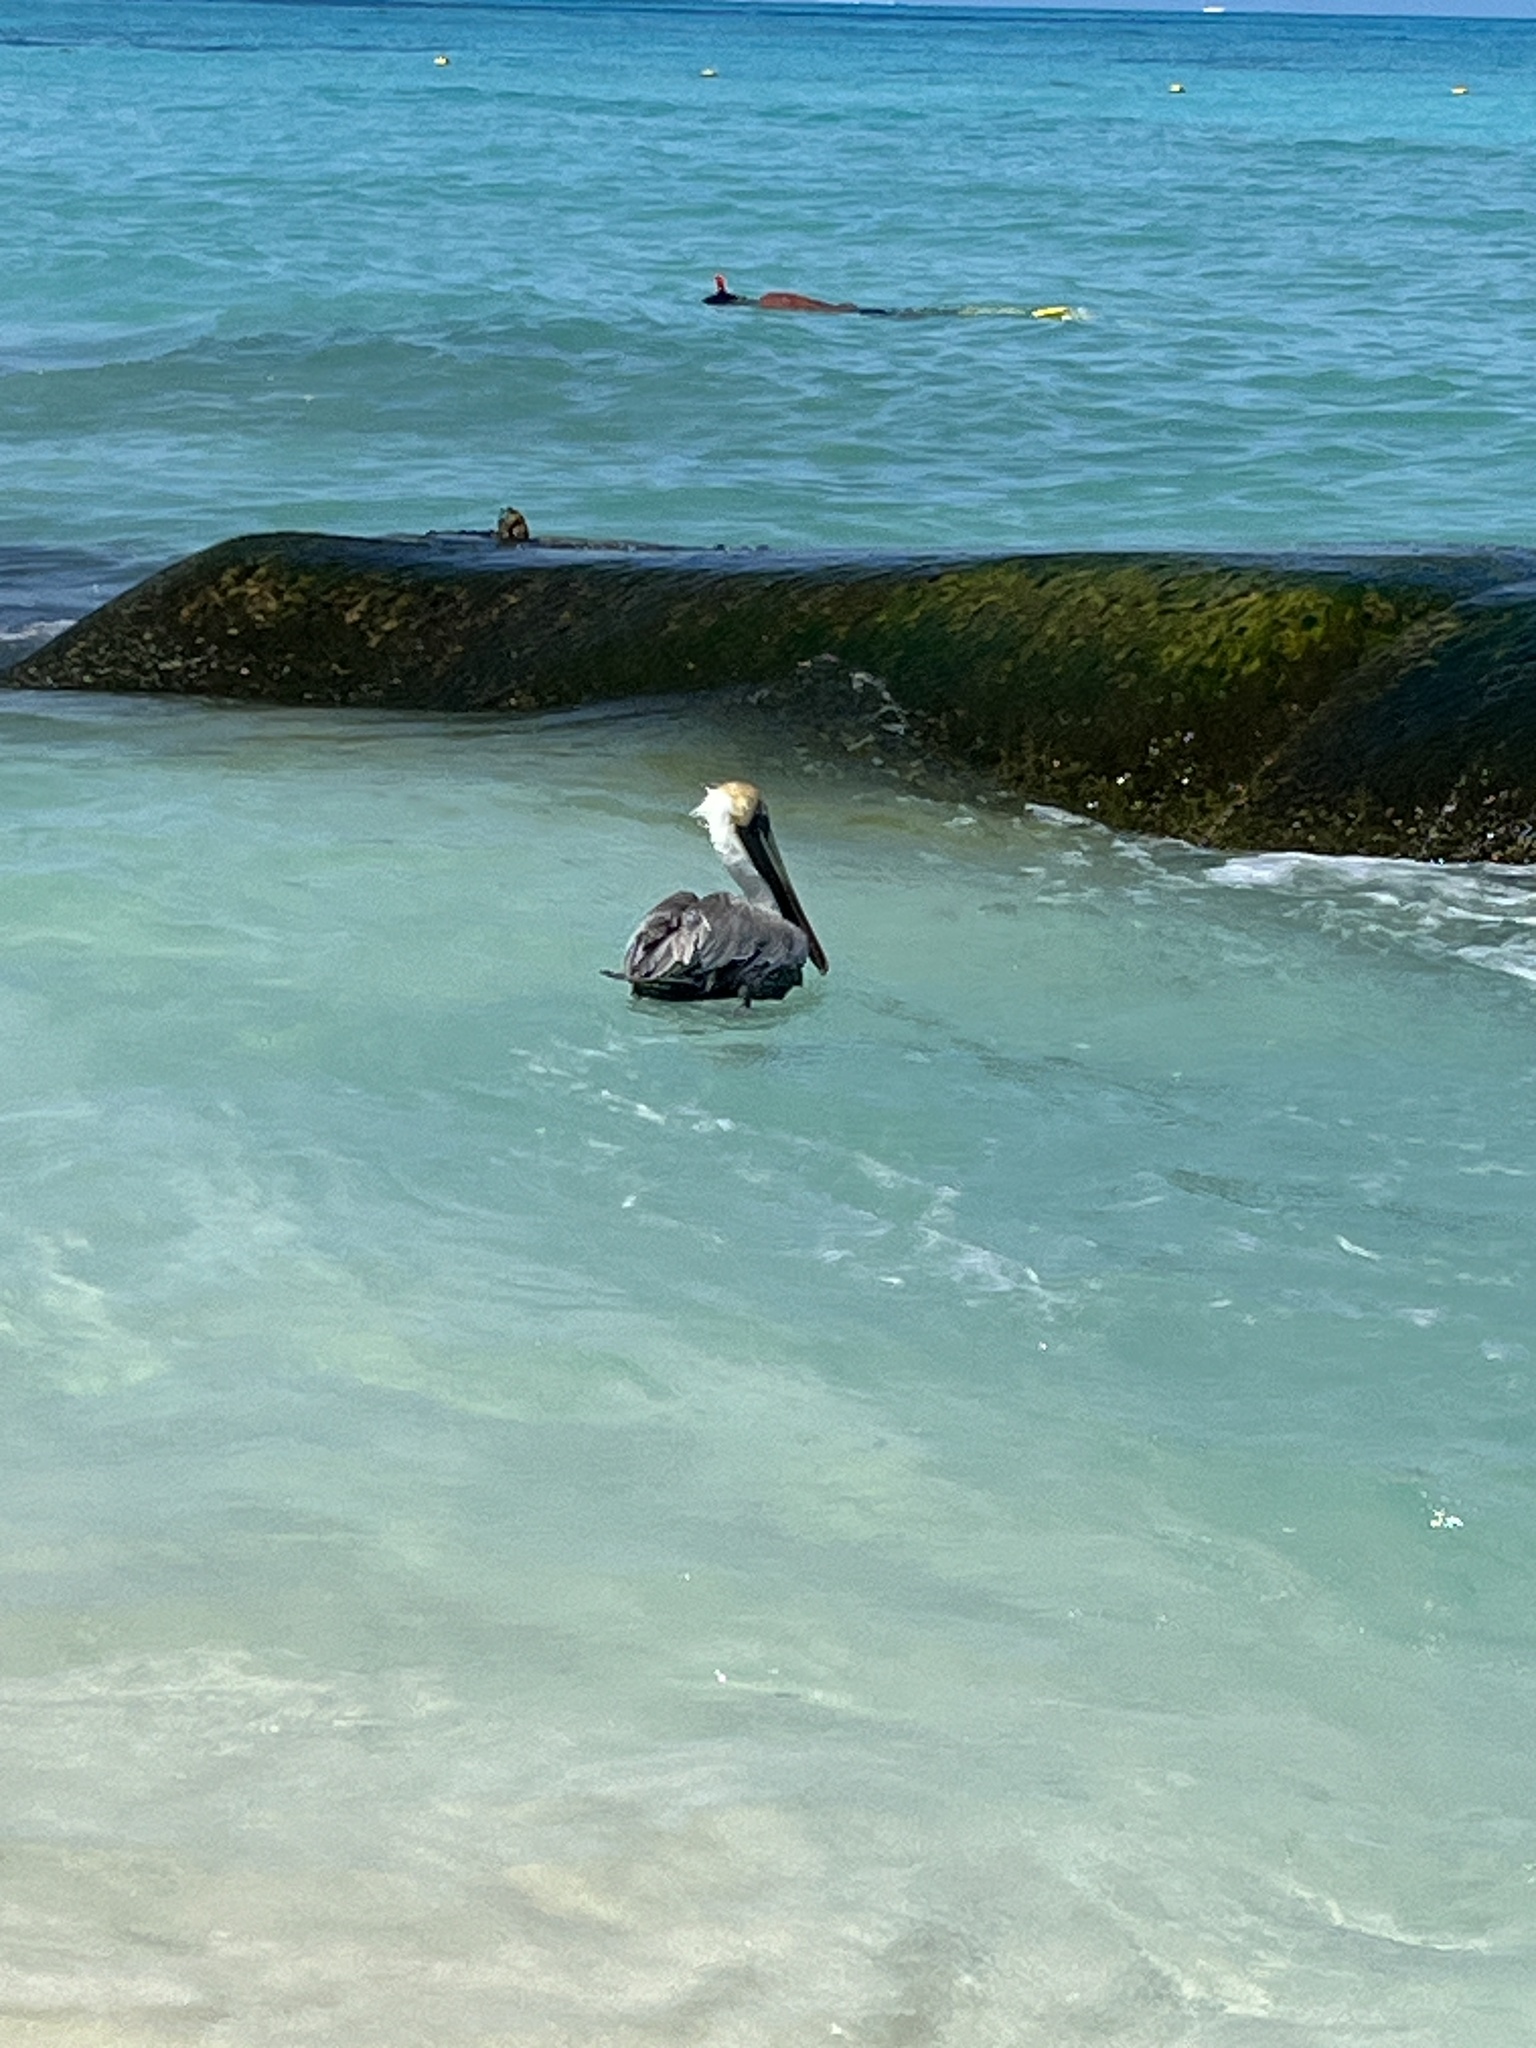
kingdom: Animalia
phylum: Chordata
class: Aves
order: Pelecaniformes
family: Pelecanidae
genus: Pelecanus
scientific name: Pelecanus occidentalis
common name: Brown pelican
